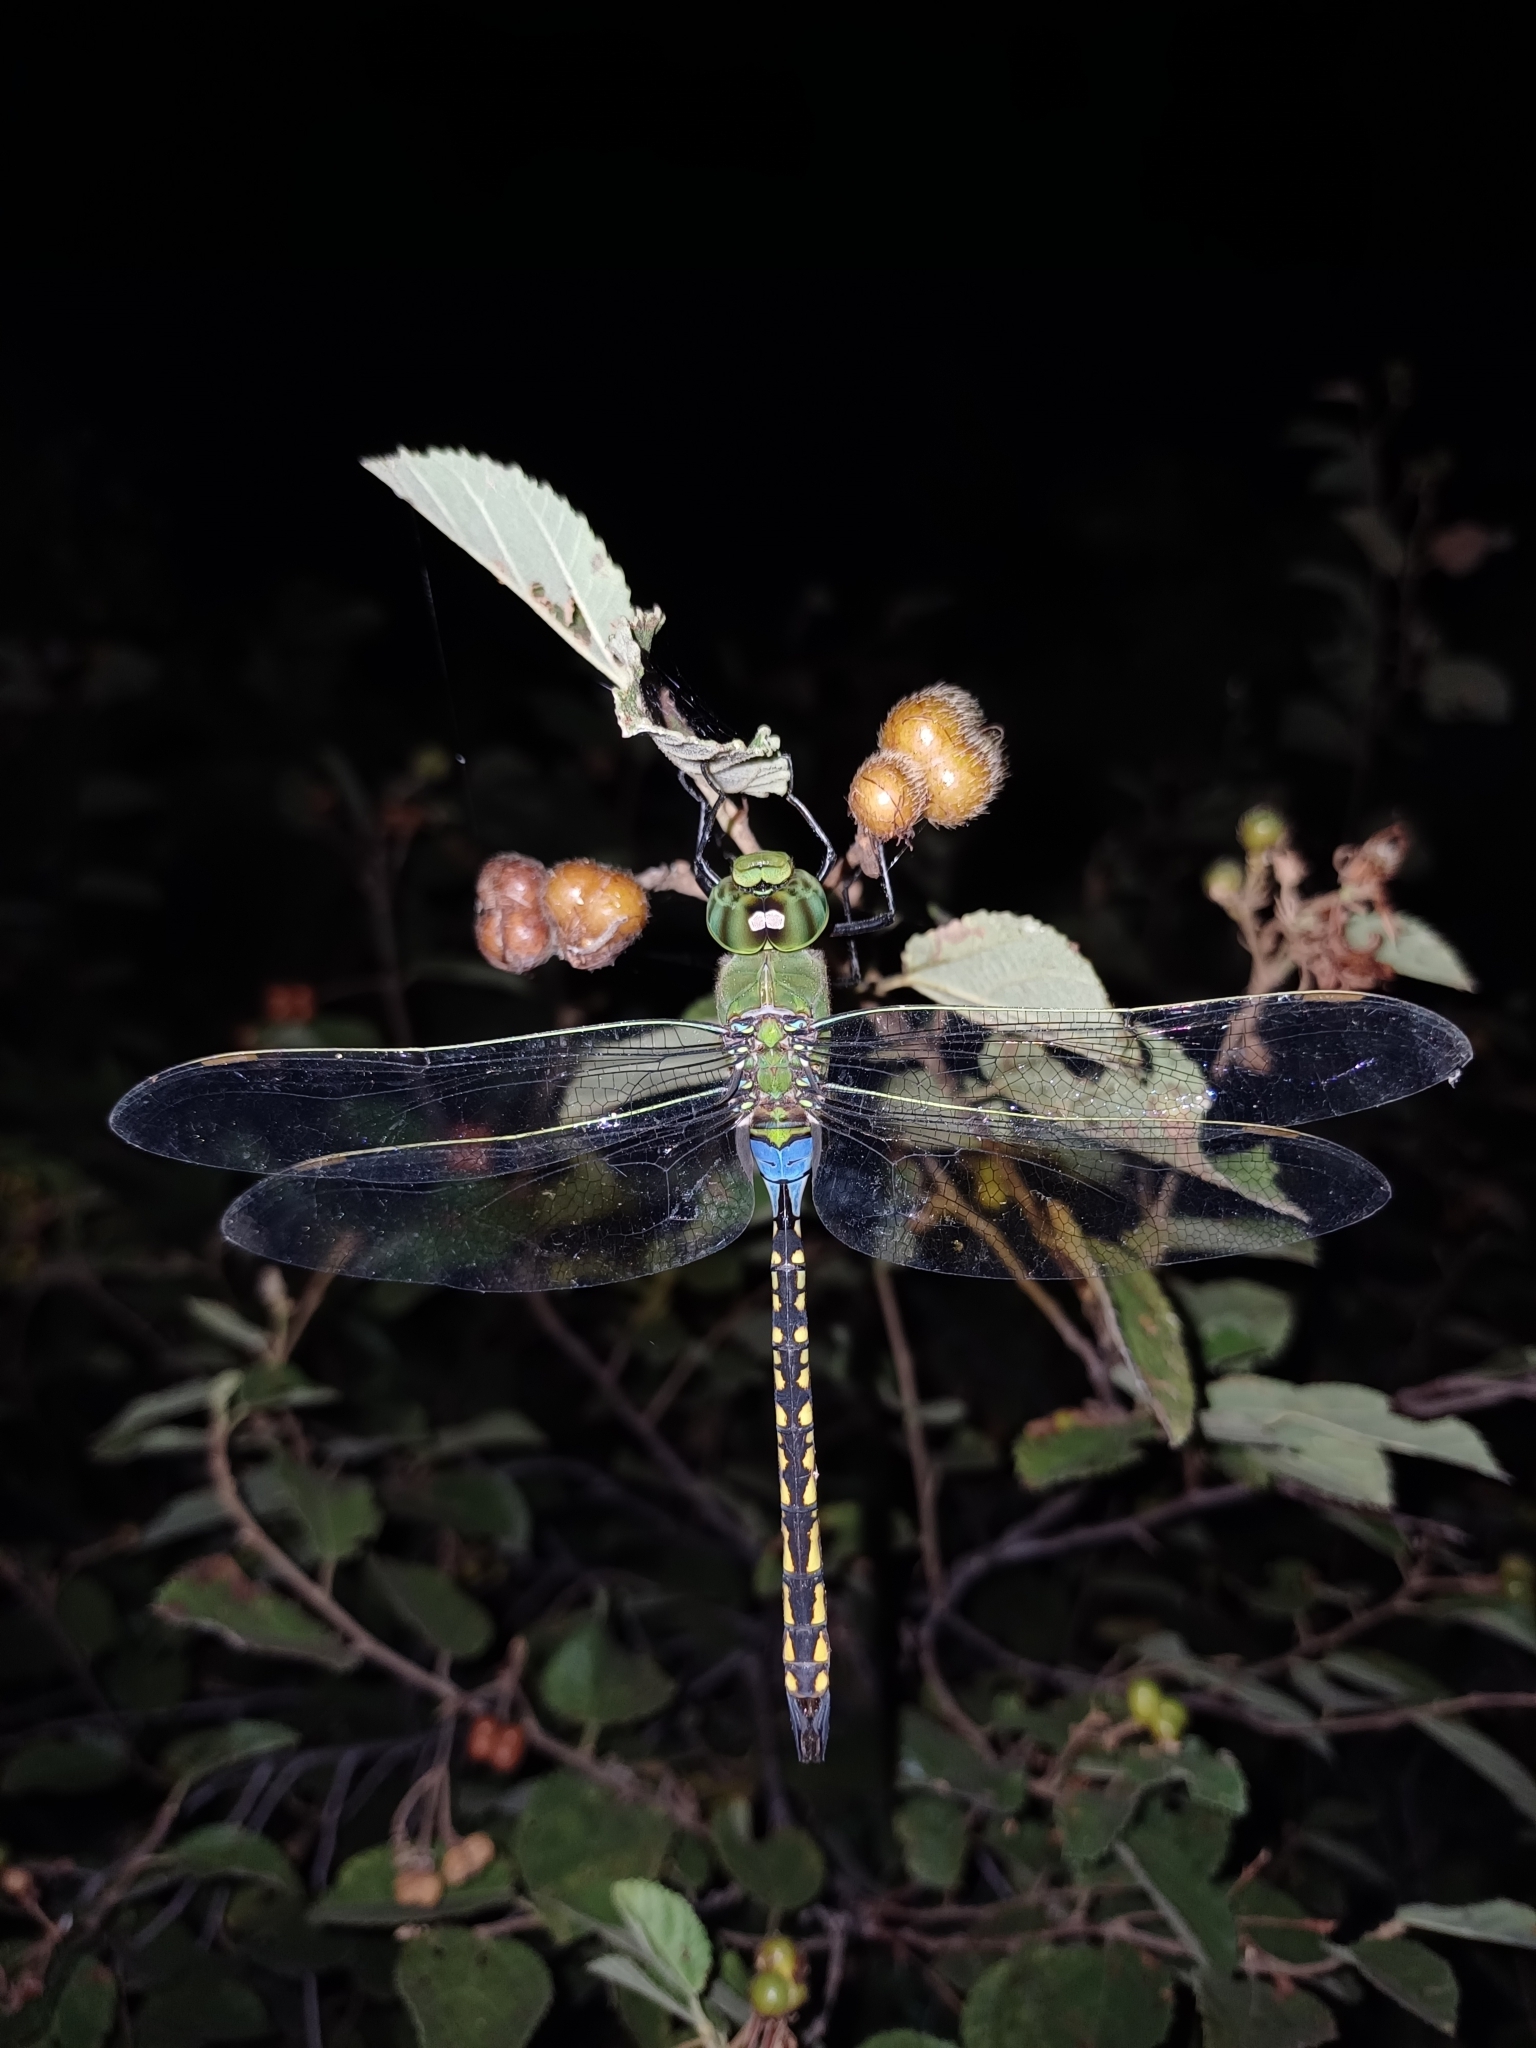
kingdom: Animalia
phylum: Arthropoda
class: Insecta
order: Odonata
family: Aeshnidae
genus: Anax
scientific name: Anax indicus
